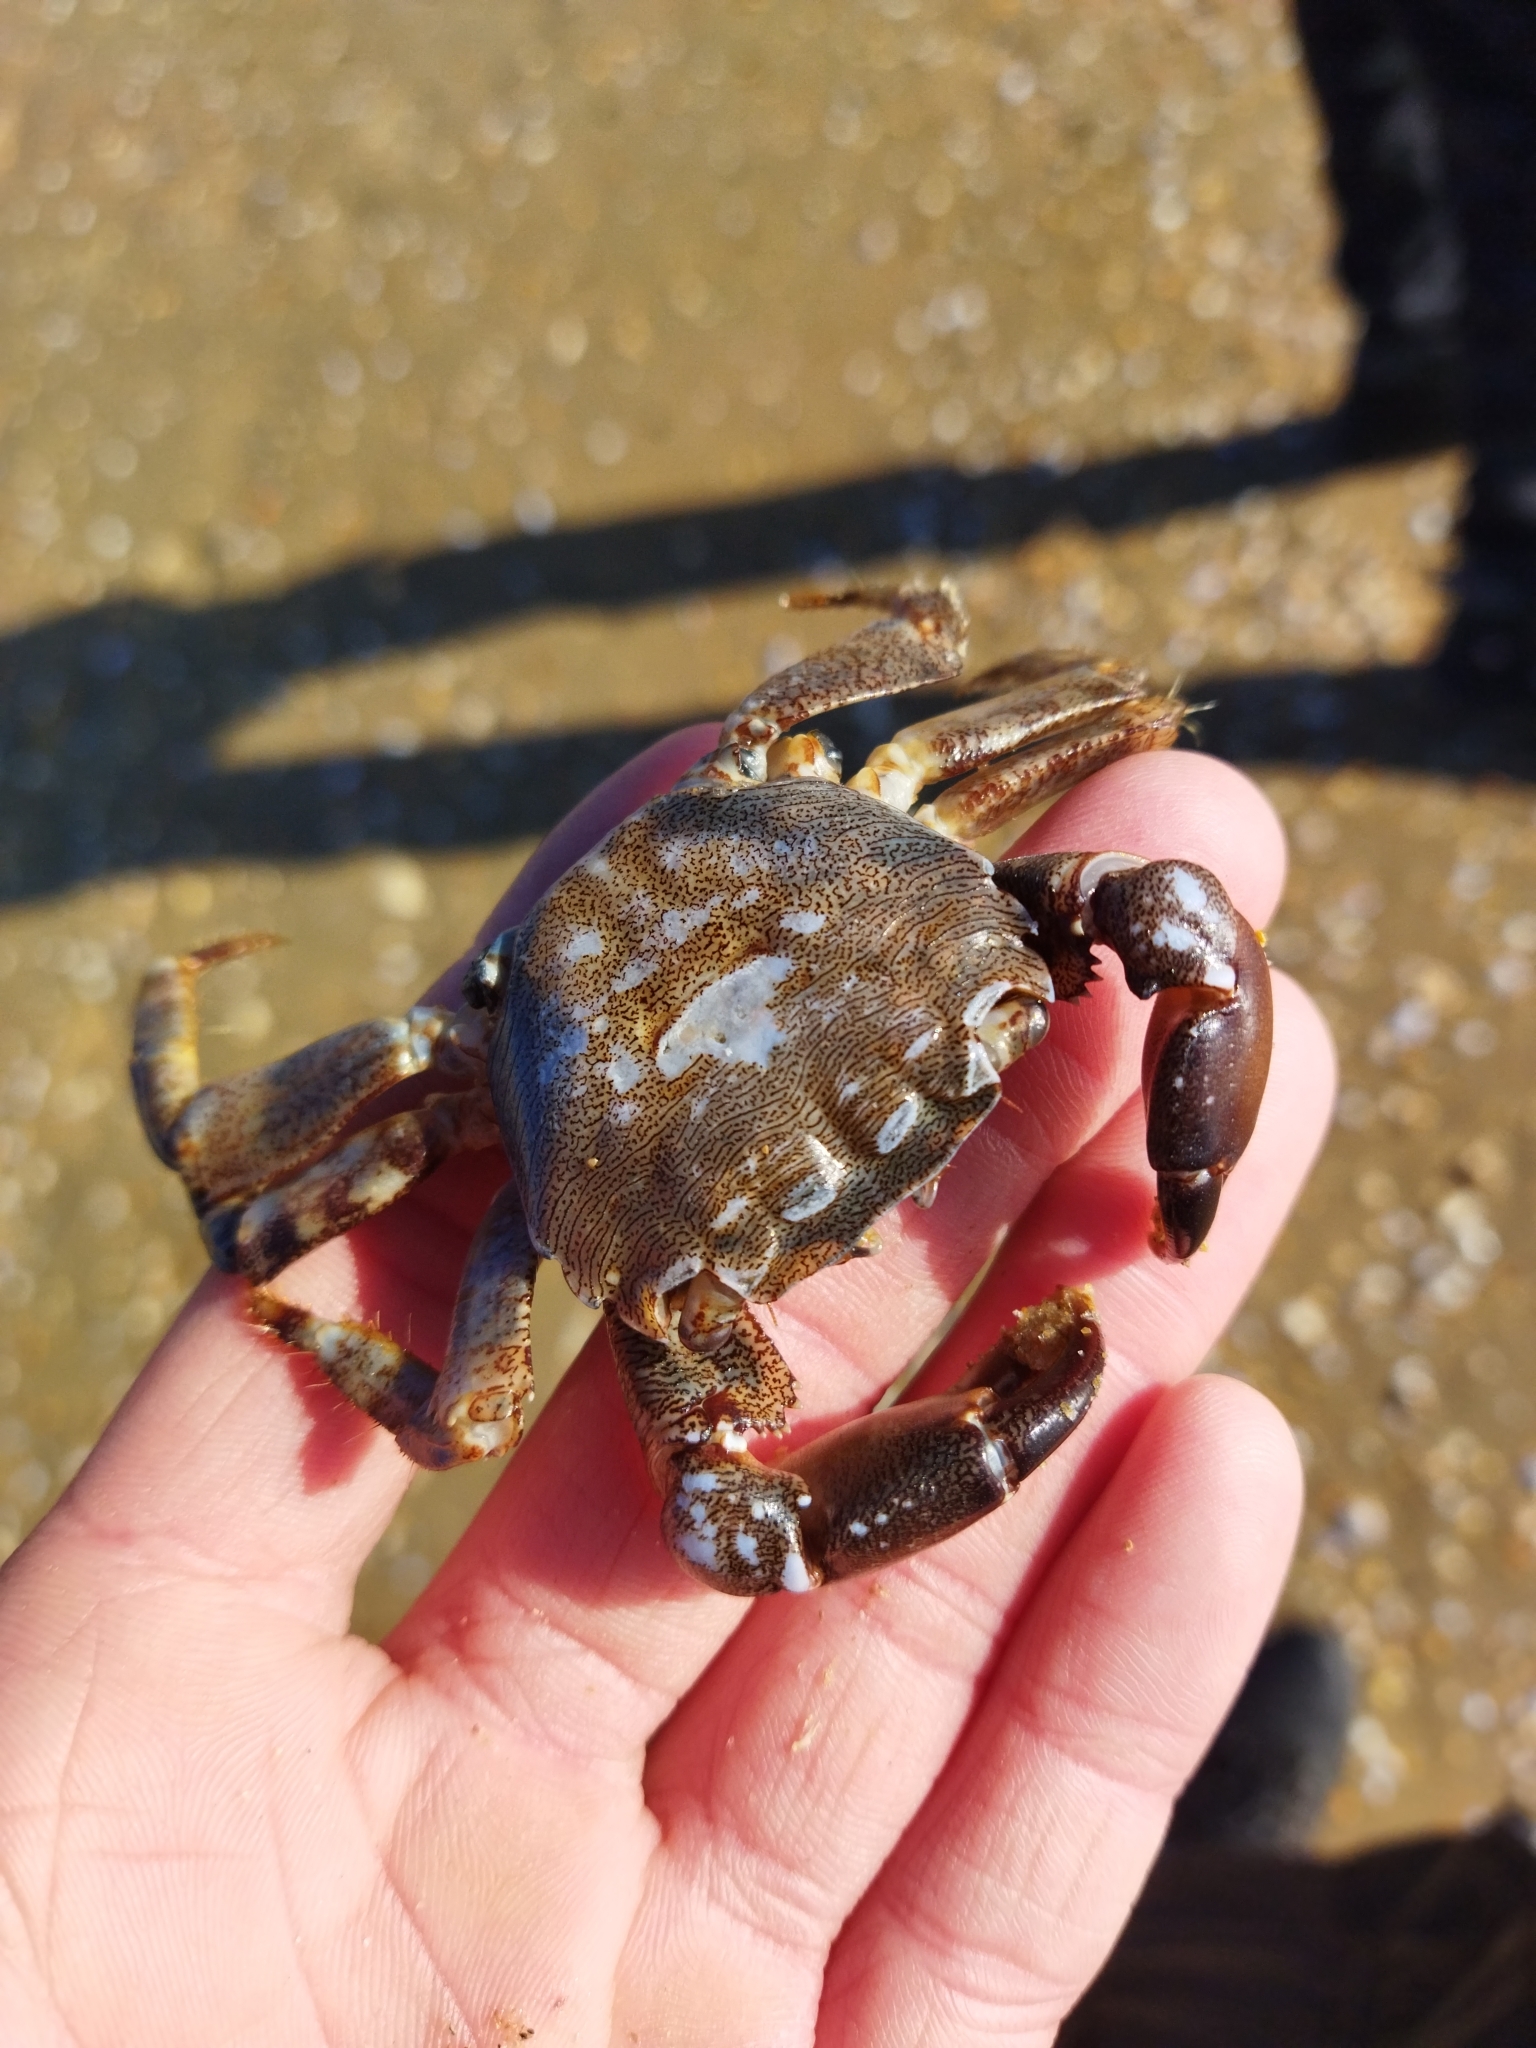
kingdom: Animalia
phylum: Arthropoda
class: Malacostraca
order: Decapoda
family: Grapsidae
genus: Pachygrapsus
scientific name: Pachygrapsus marmoratus
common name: Marbled rock crab
